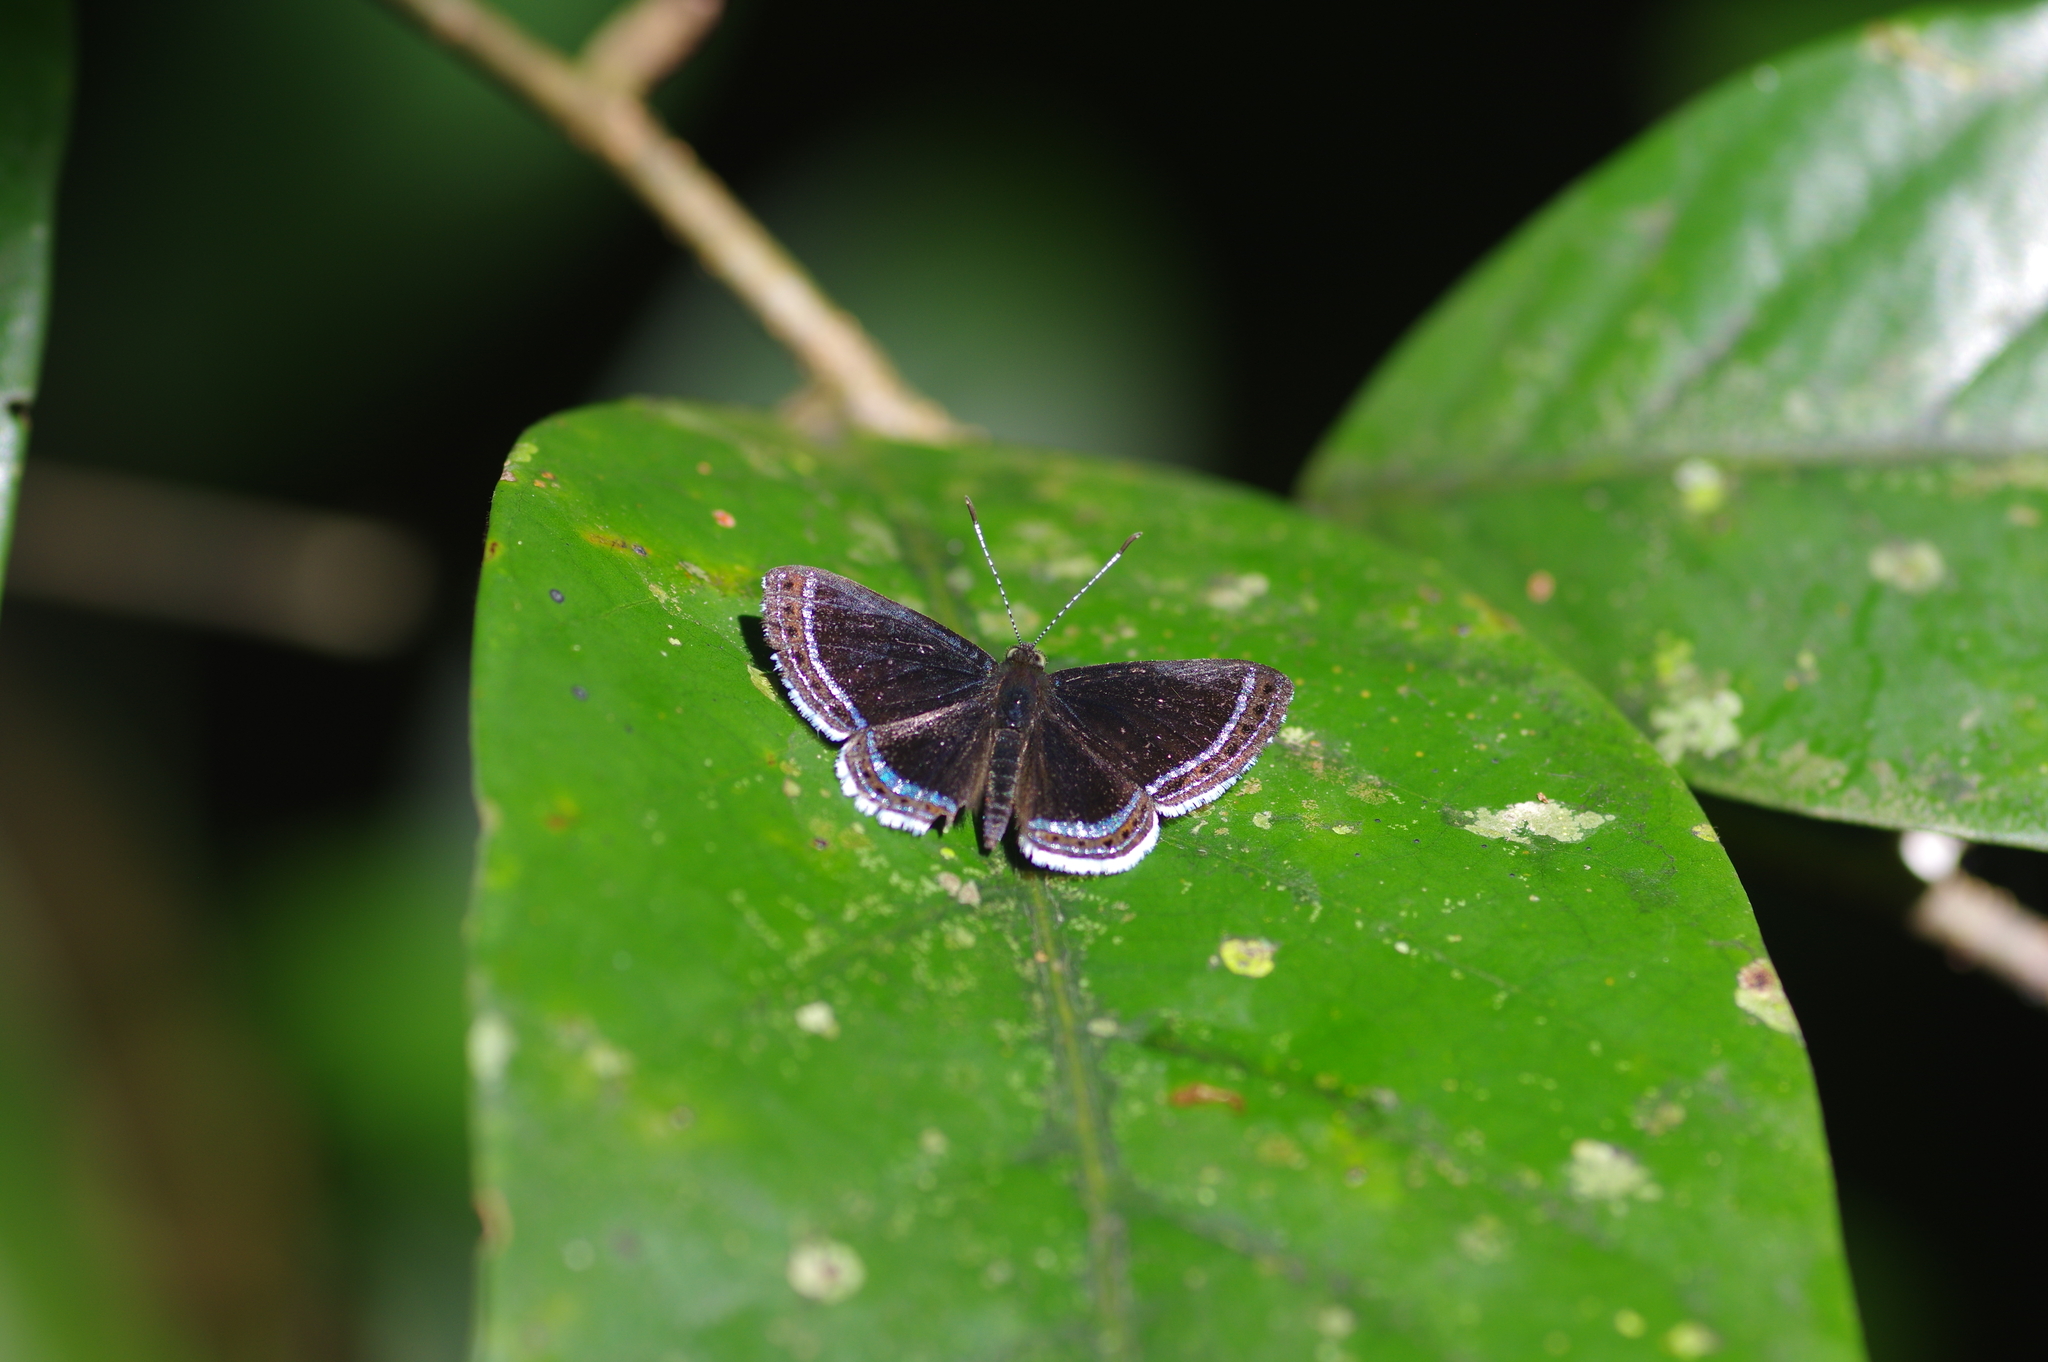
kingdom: Animalia
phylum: Arthropoda
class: Insecta
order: Lepidoptera
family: Riodinidae
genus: Detritivora
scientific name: Detritivora cleonus
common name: Cleonus metalmark
